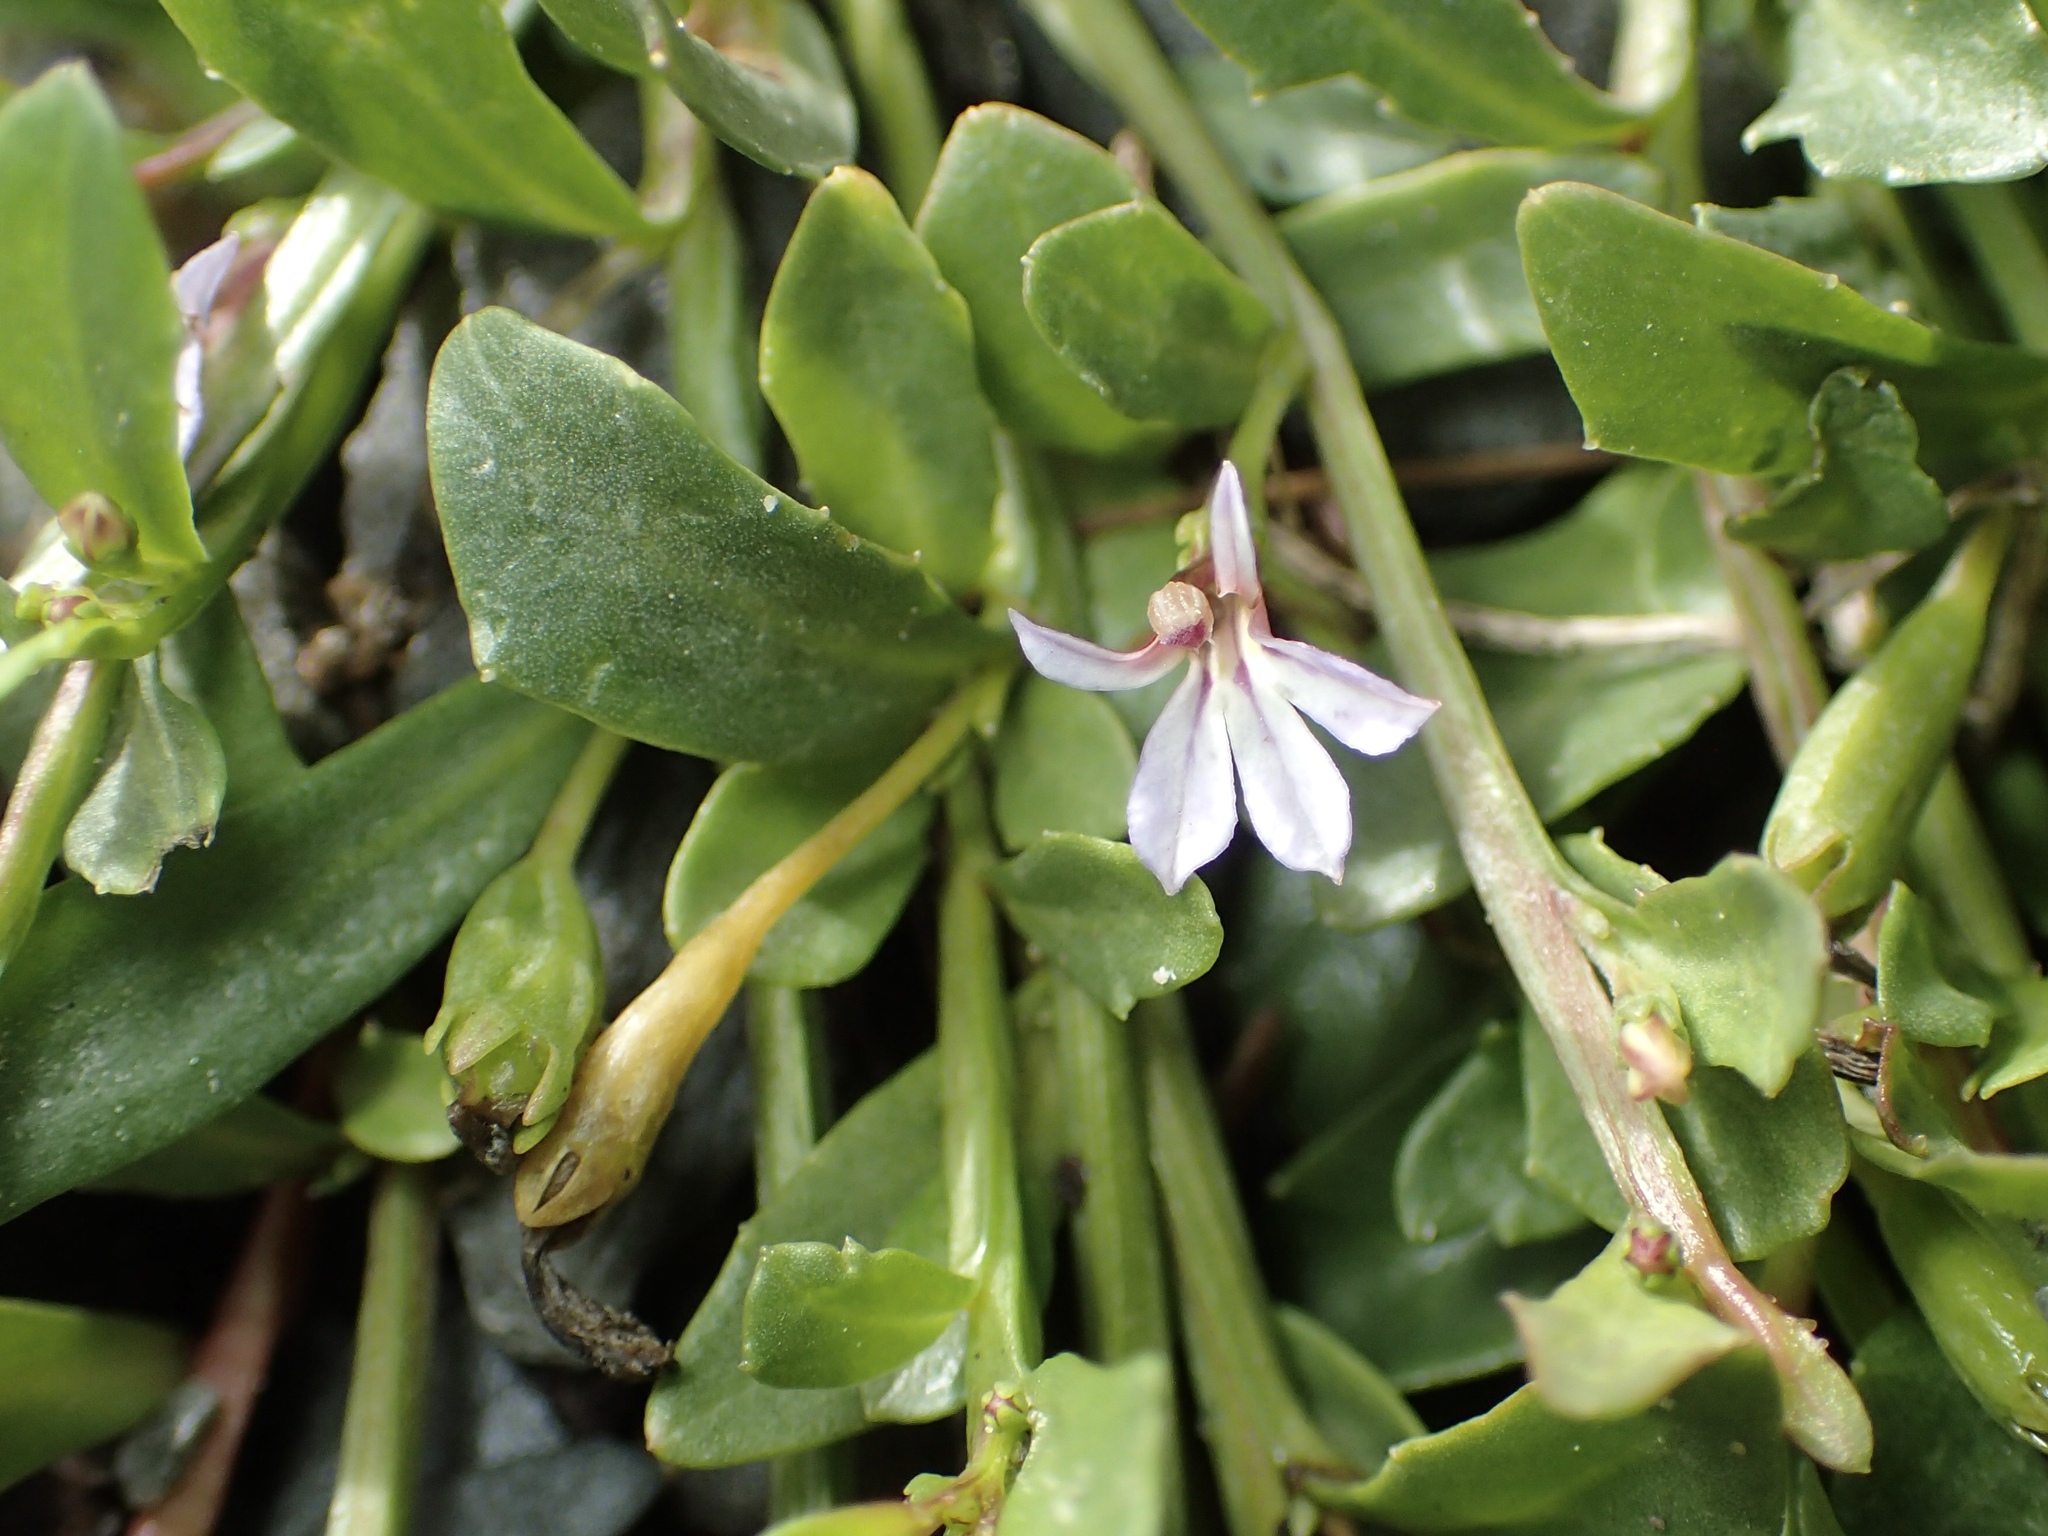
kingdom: Plantae
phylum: Tracheophyta
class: Magnoliopsida
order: Asterales
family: Campanulaceae
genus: Lobelia
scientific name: Lobelia anceps
